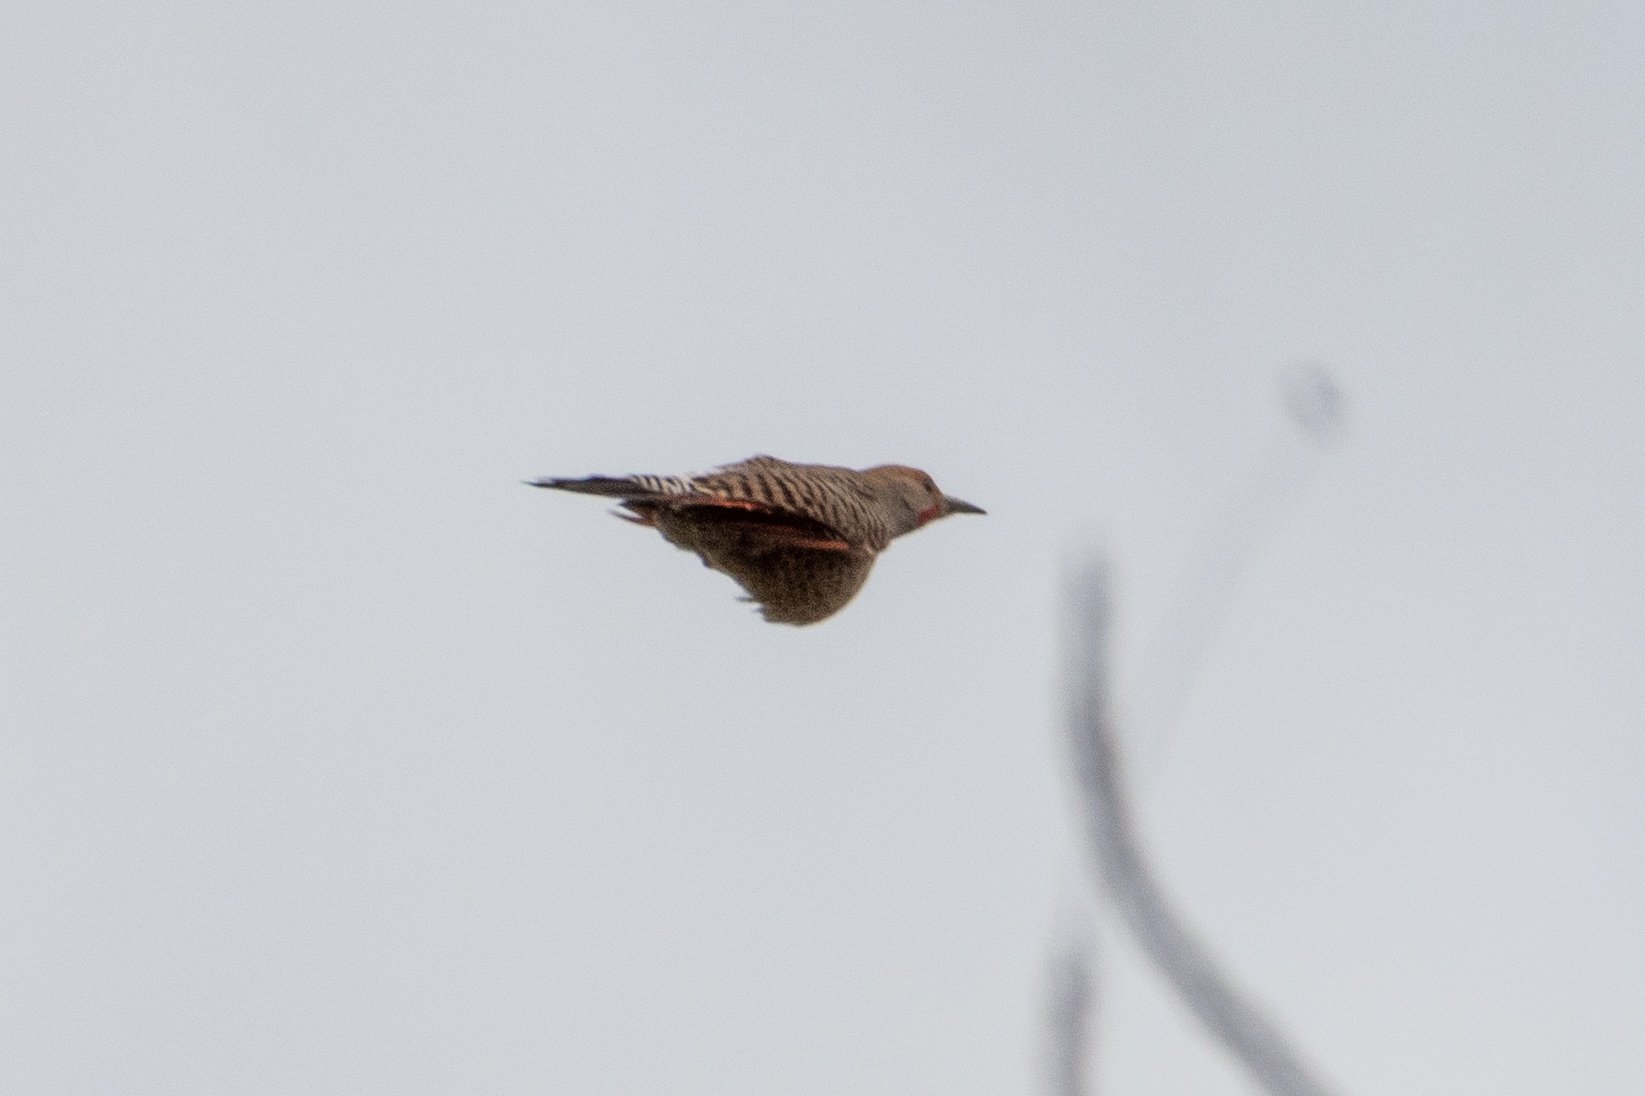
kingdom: Animalia
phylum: Chordata
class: Aves
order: Piciformes
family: Picidae
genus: Colaptes
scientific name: Colaptes auratus
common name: Northern flicker
